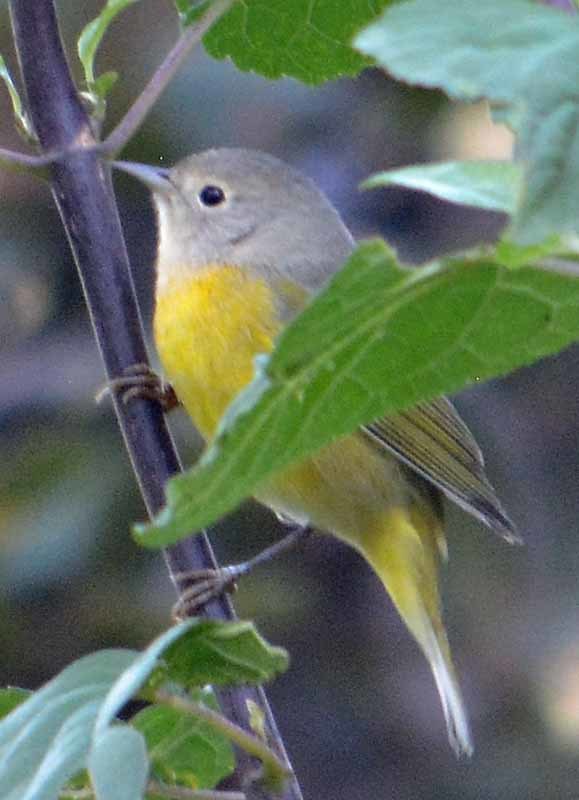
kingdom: Animalia
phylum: Chordata
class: Aves
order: Passeriformes
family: Parulidae
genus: Leiothlypis
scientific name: Leiothlypis ruficapilla
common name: Nashville warbler
